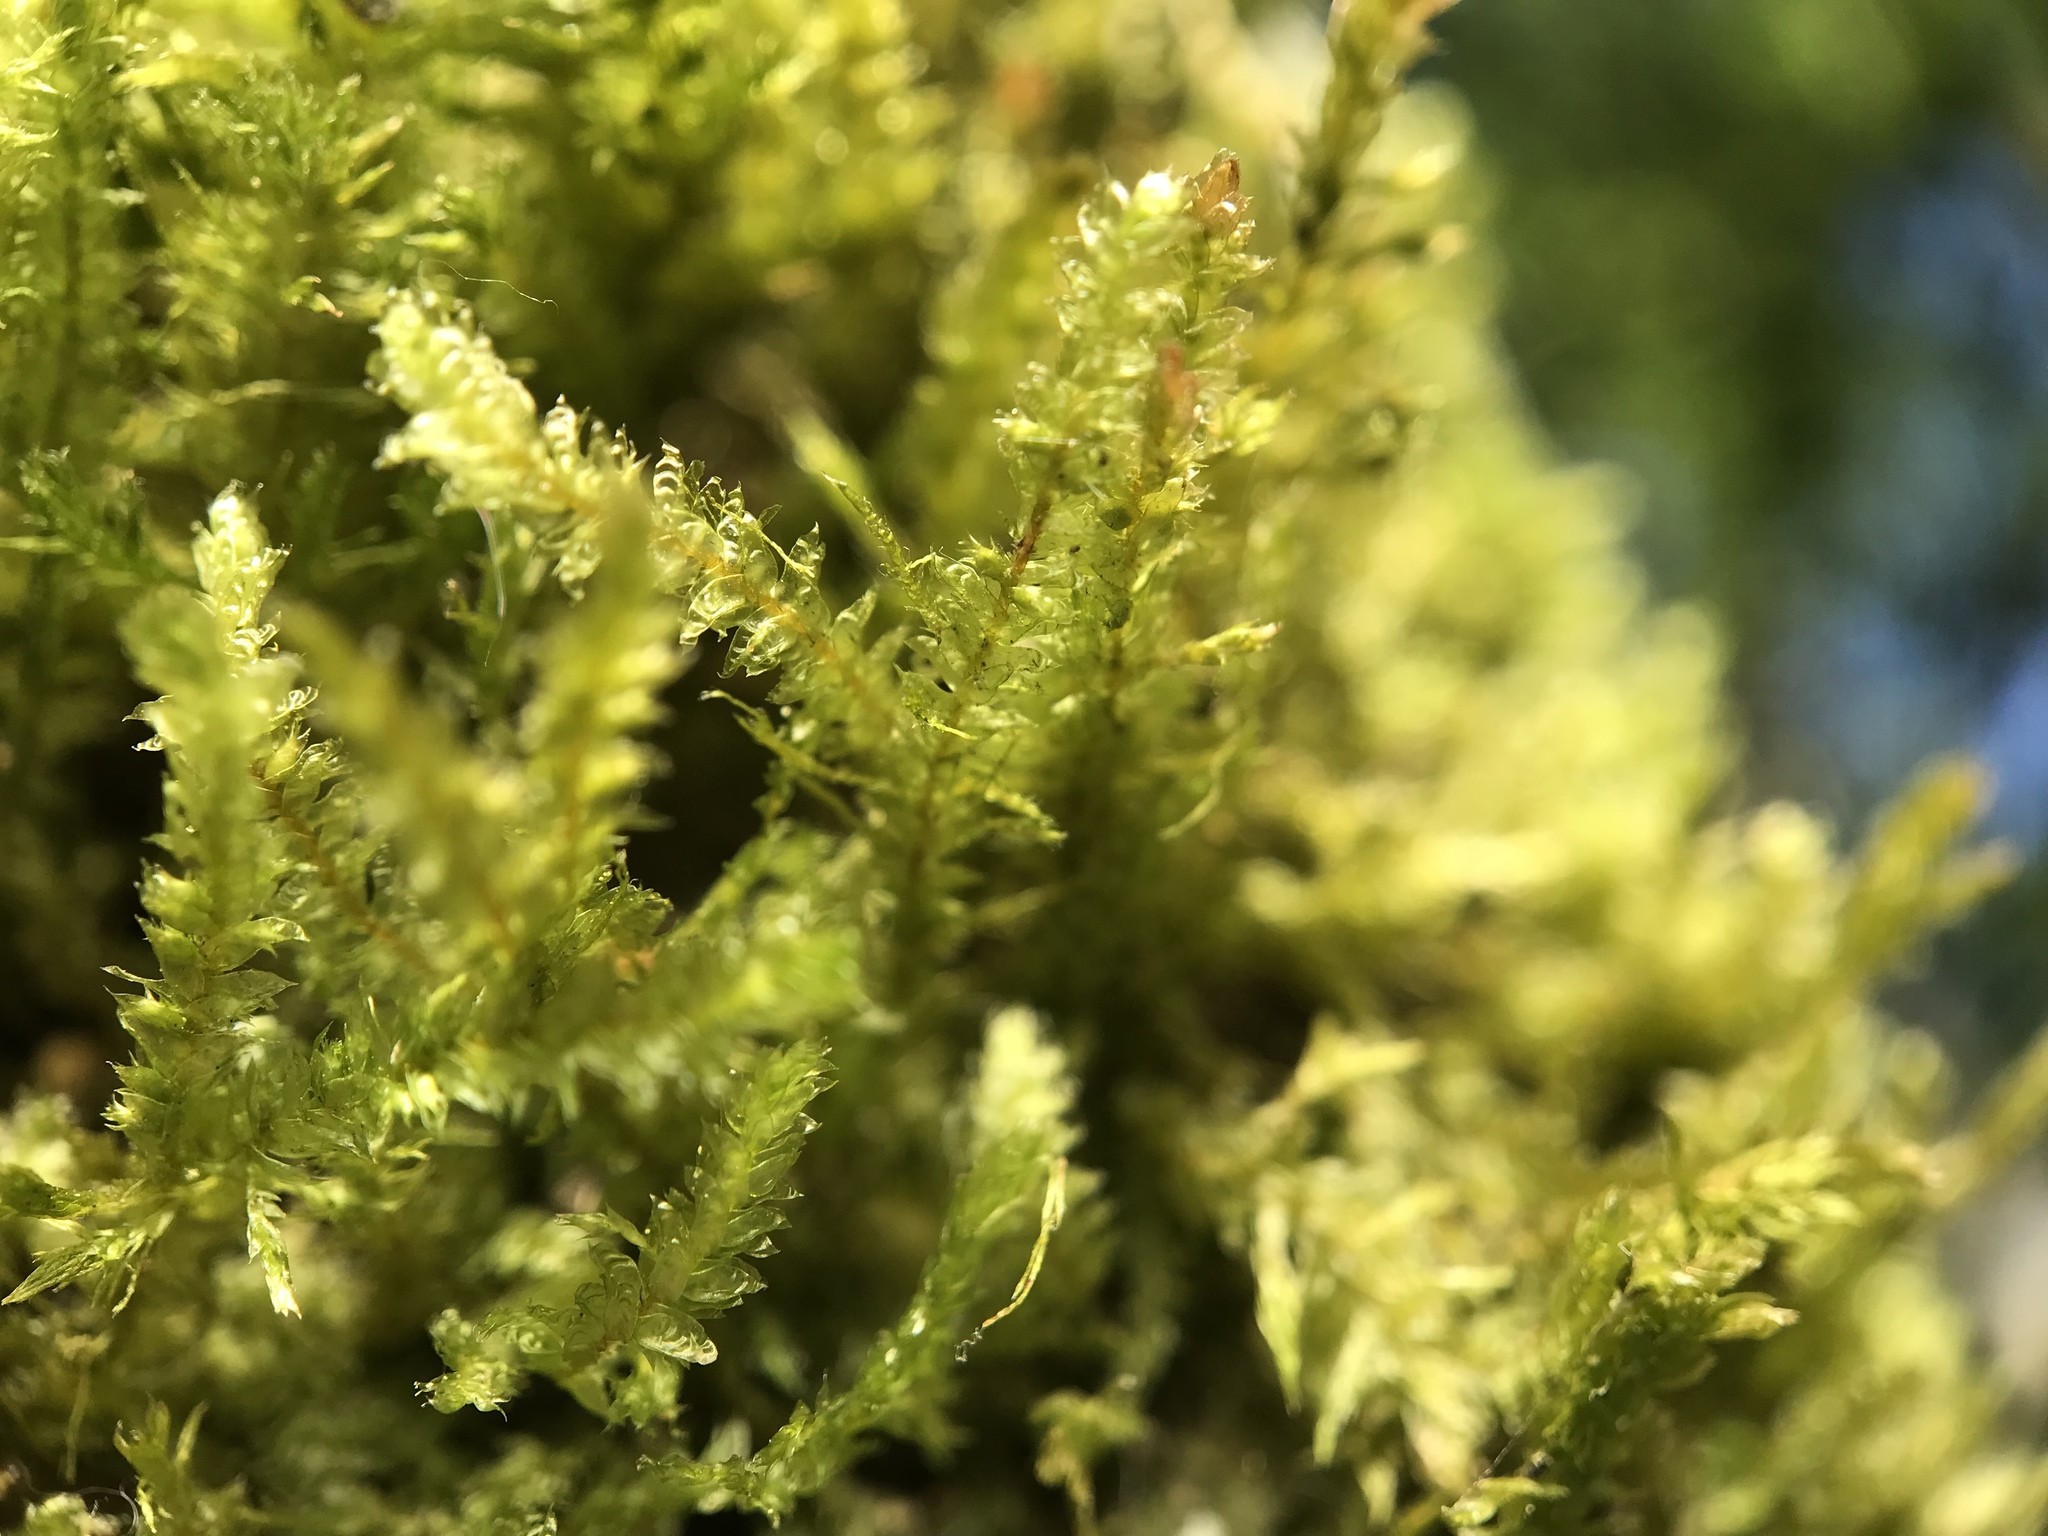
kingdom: Plantae
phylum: Bryophyta
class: Bryopsida
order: Hypnales
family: Neckeraceae
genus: Neckera
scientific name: Neckera pumila
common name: Dwarf neckera
